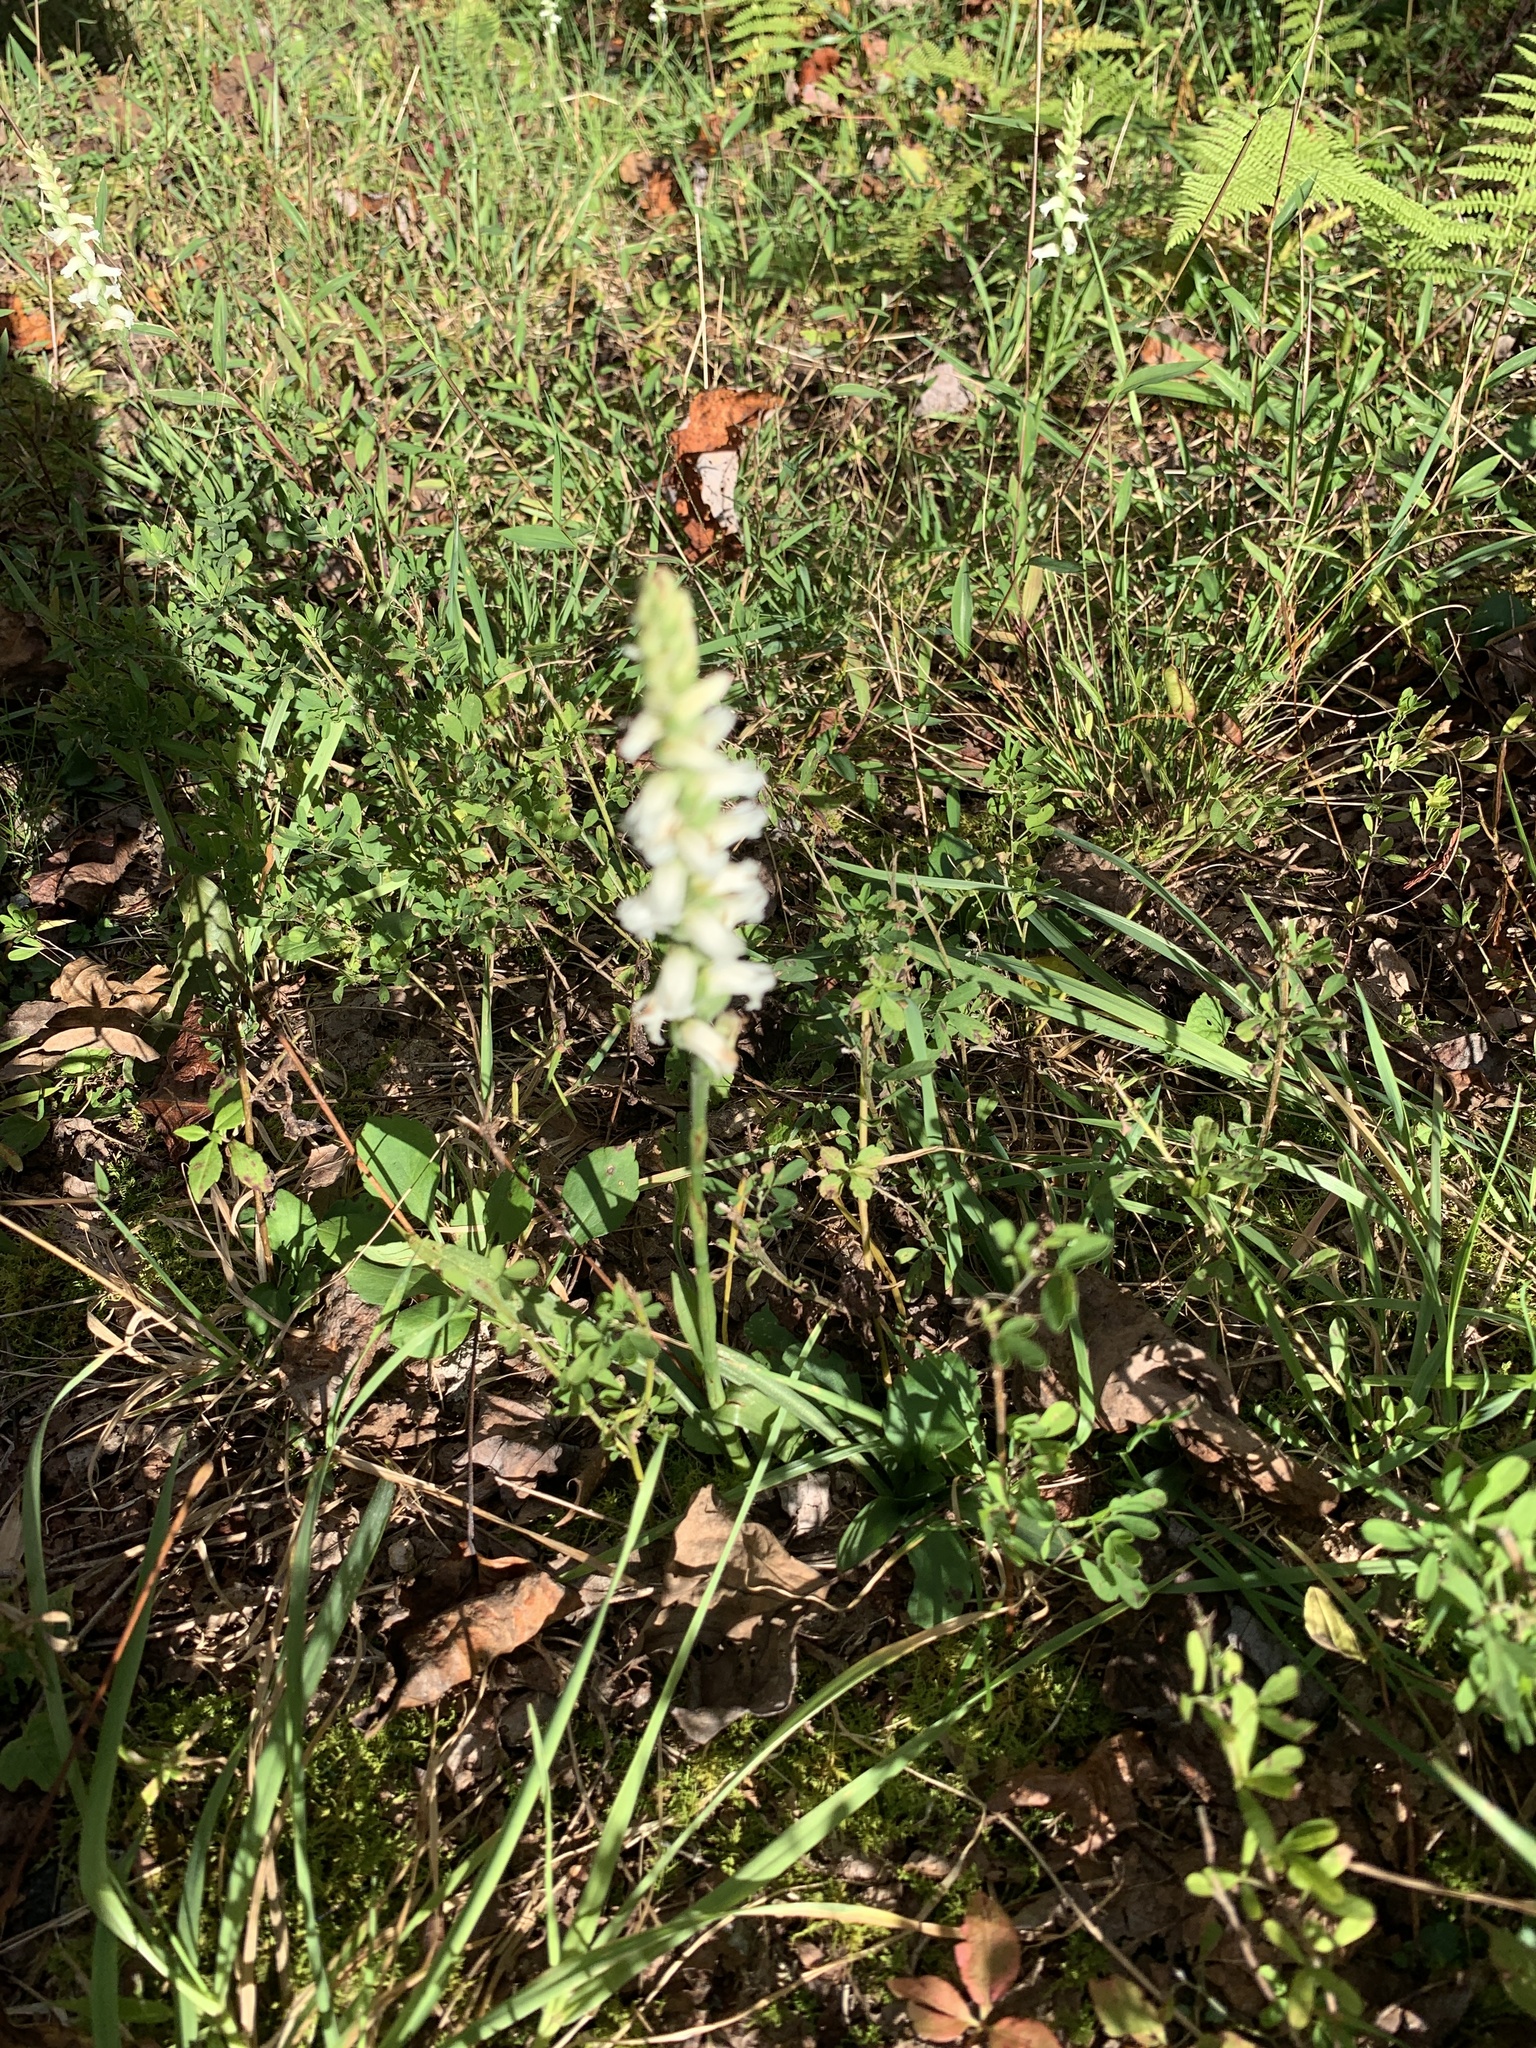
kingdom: Plantae
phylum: Tracheophyta
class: Liliopsida
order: Asparagales
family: Orchidaceae
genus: Spiranthes
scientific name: Spiranthes cernua
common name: Dropping ladies'-tresses
